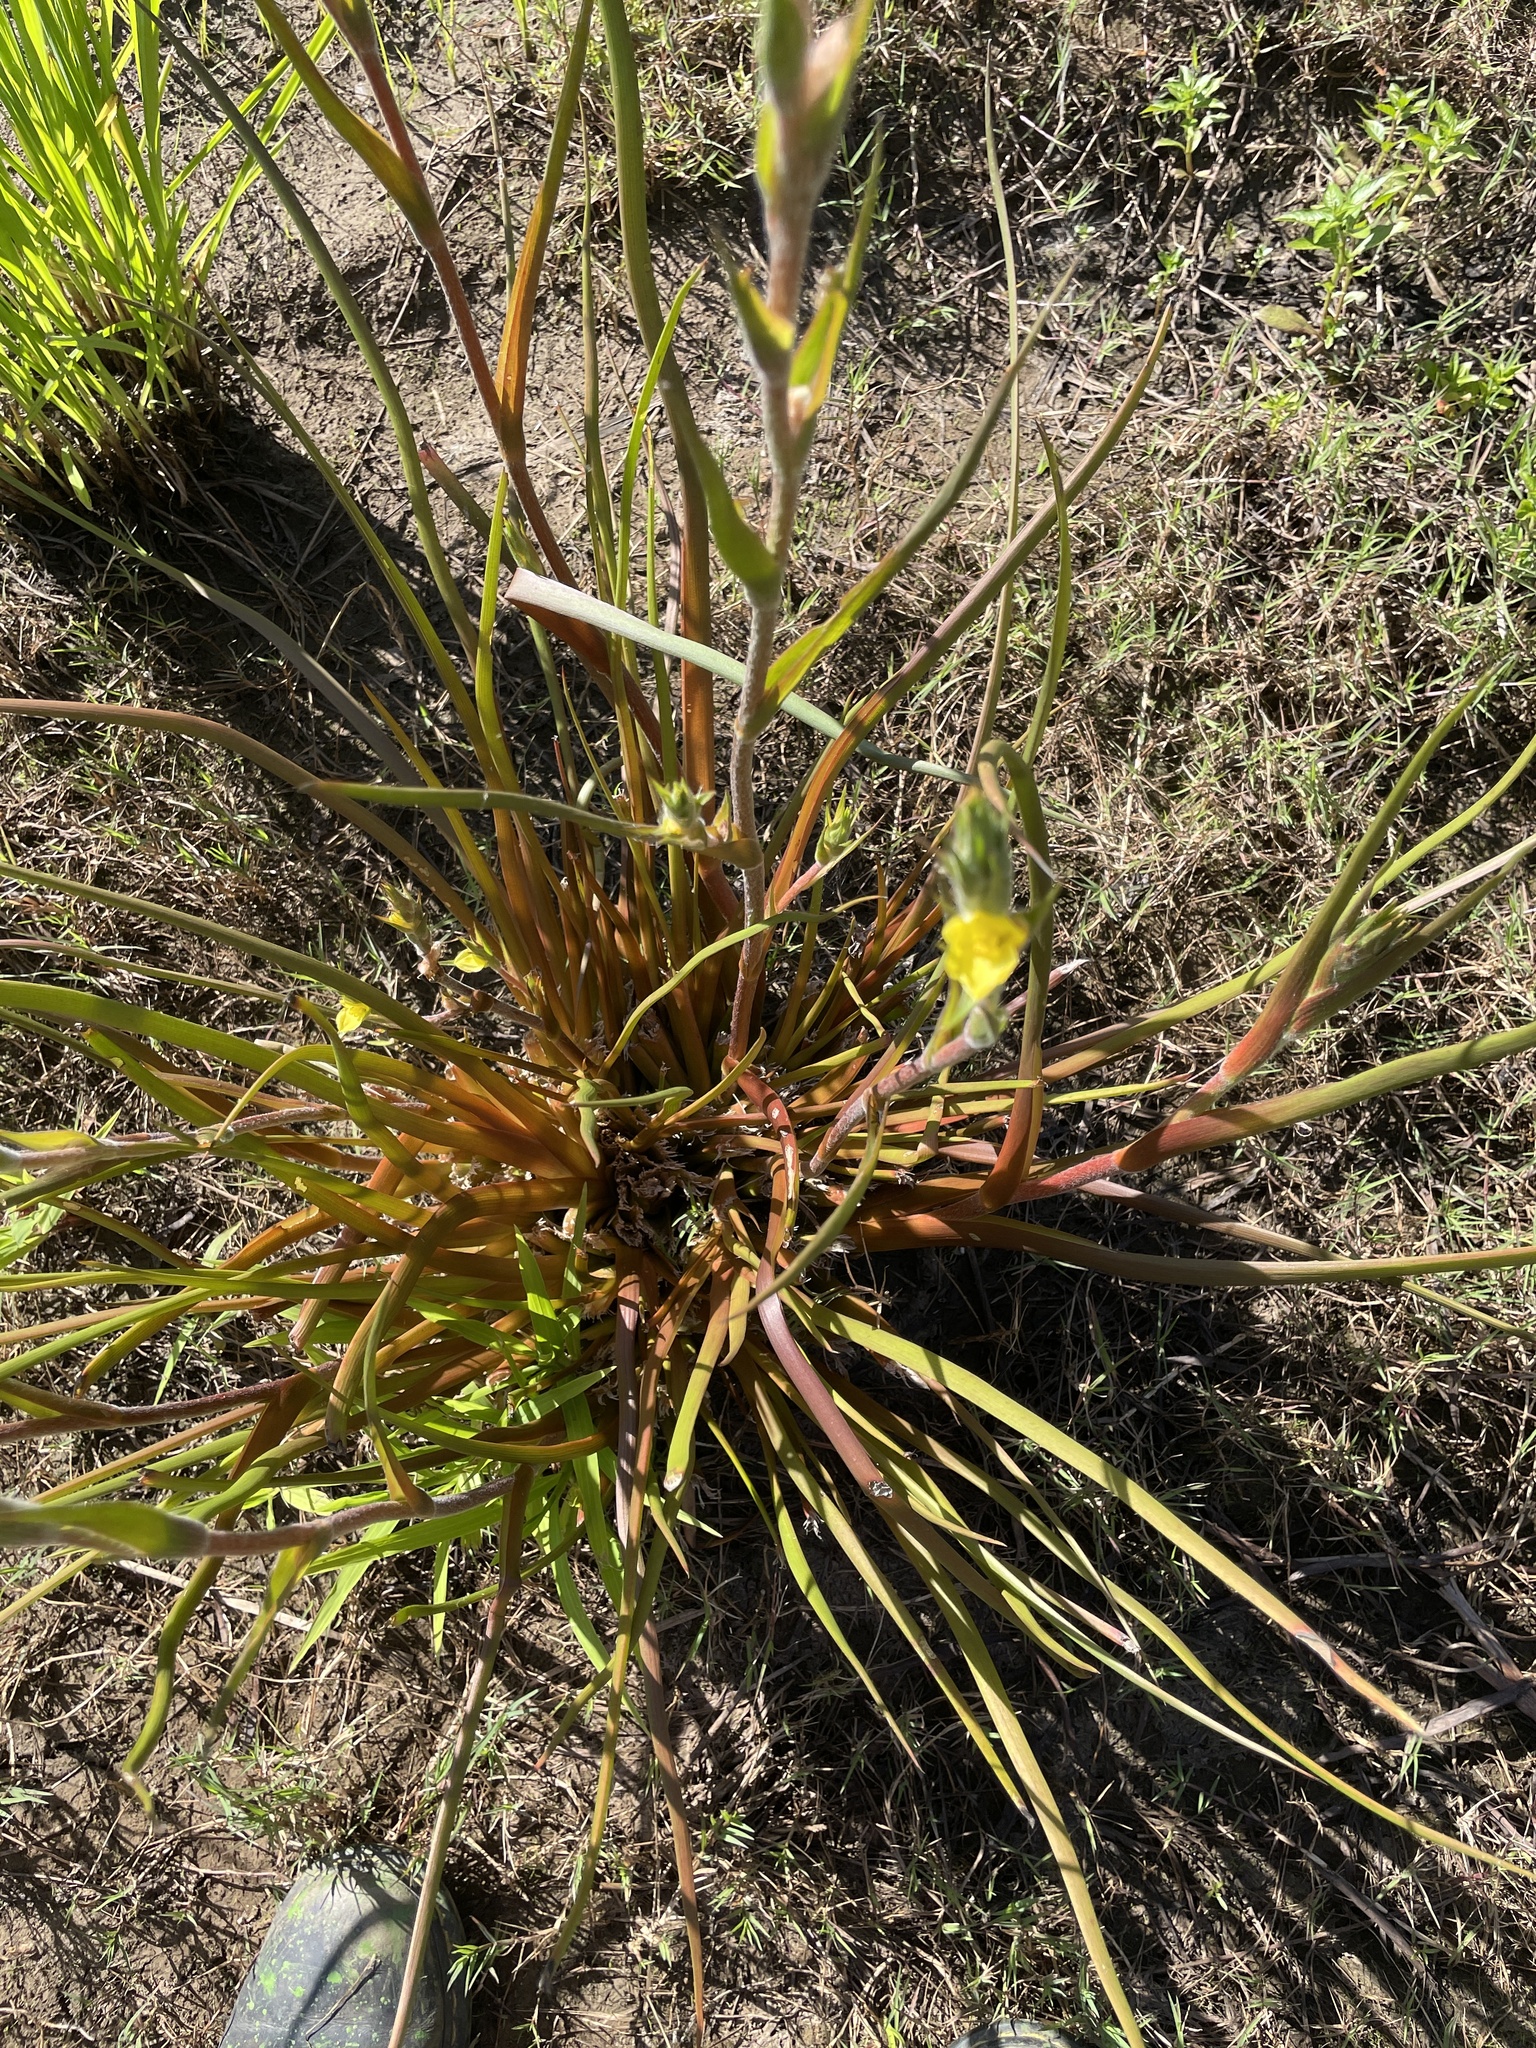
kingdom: Plantae
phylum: Tracheophyta
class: Liliopsida
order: Commelinales
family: Philydraceae
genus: Philydrum
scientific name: Philydrum lanuginosum
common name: Woolly frog's mouth
